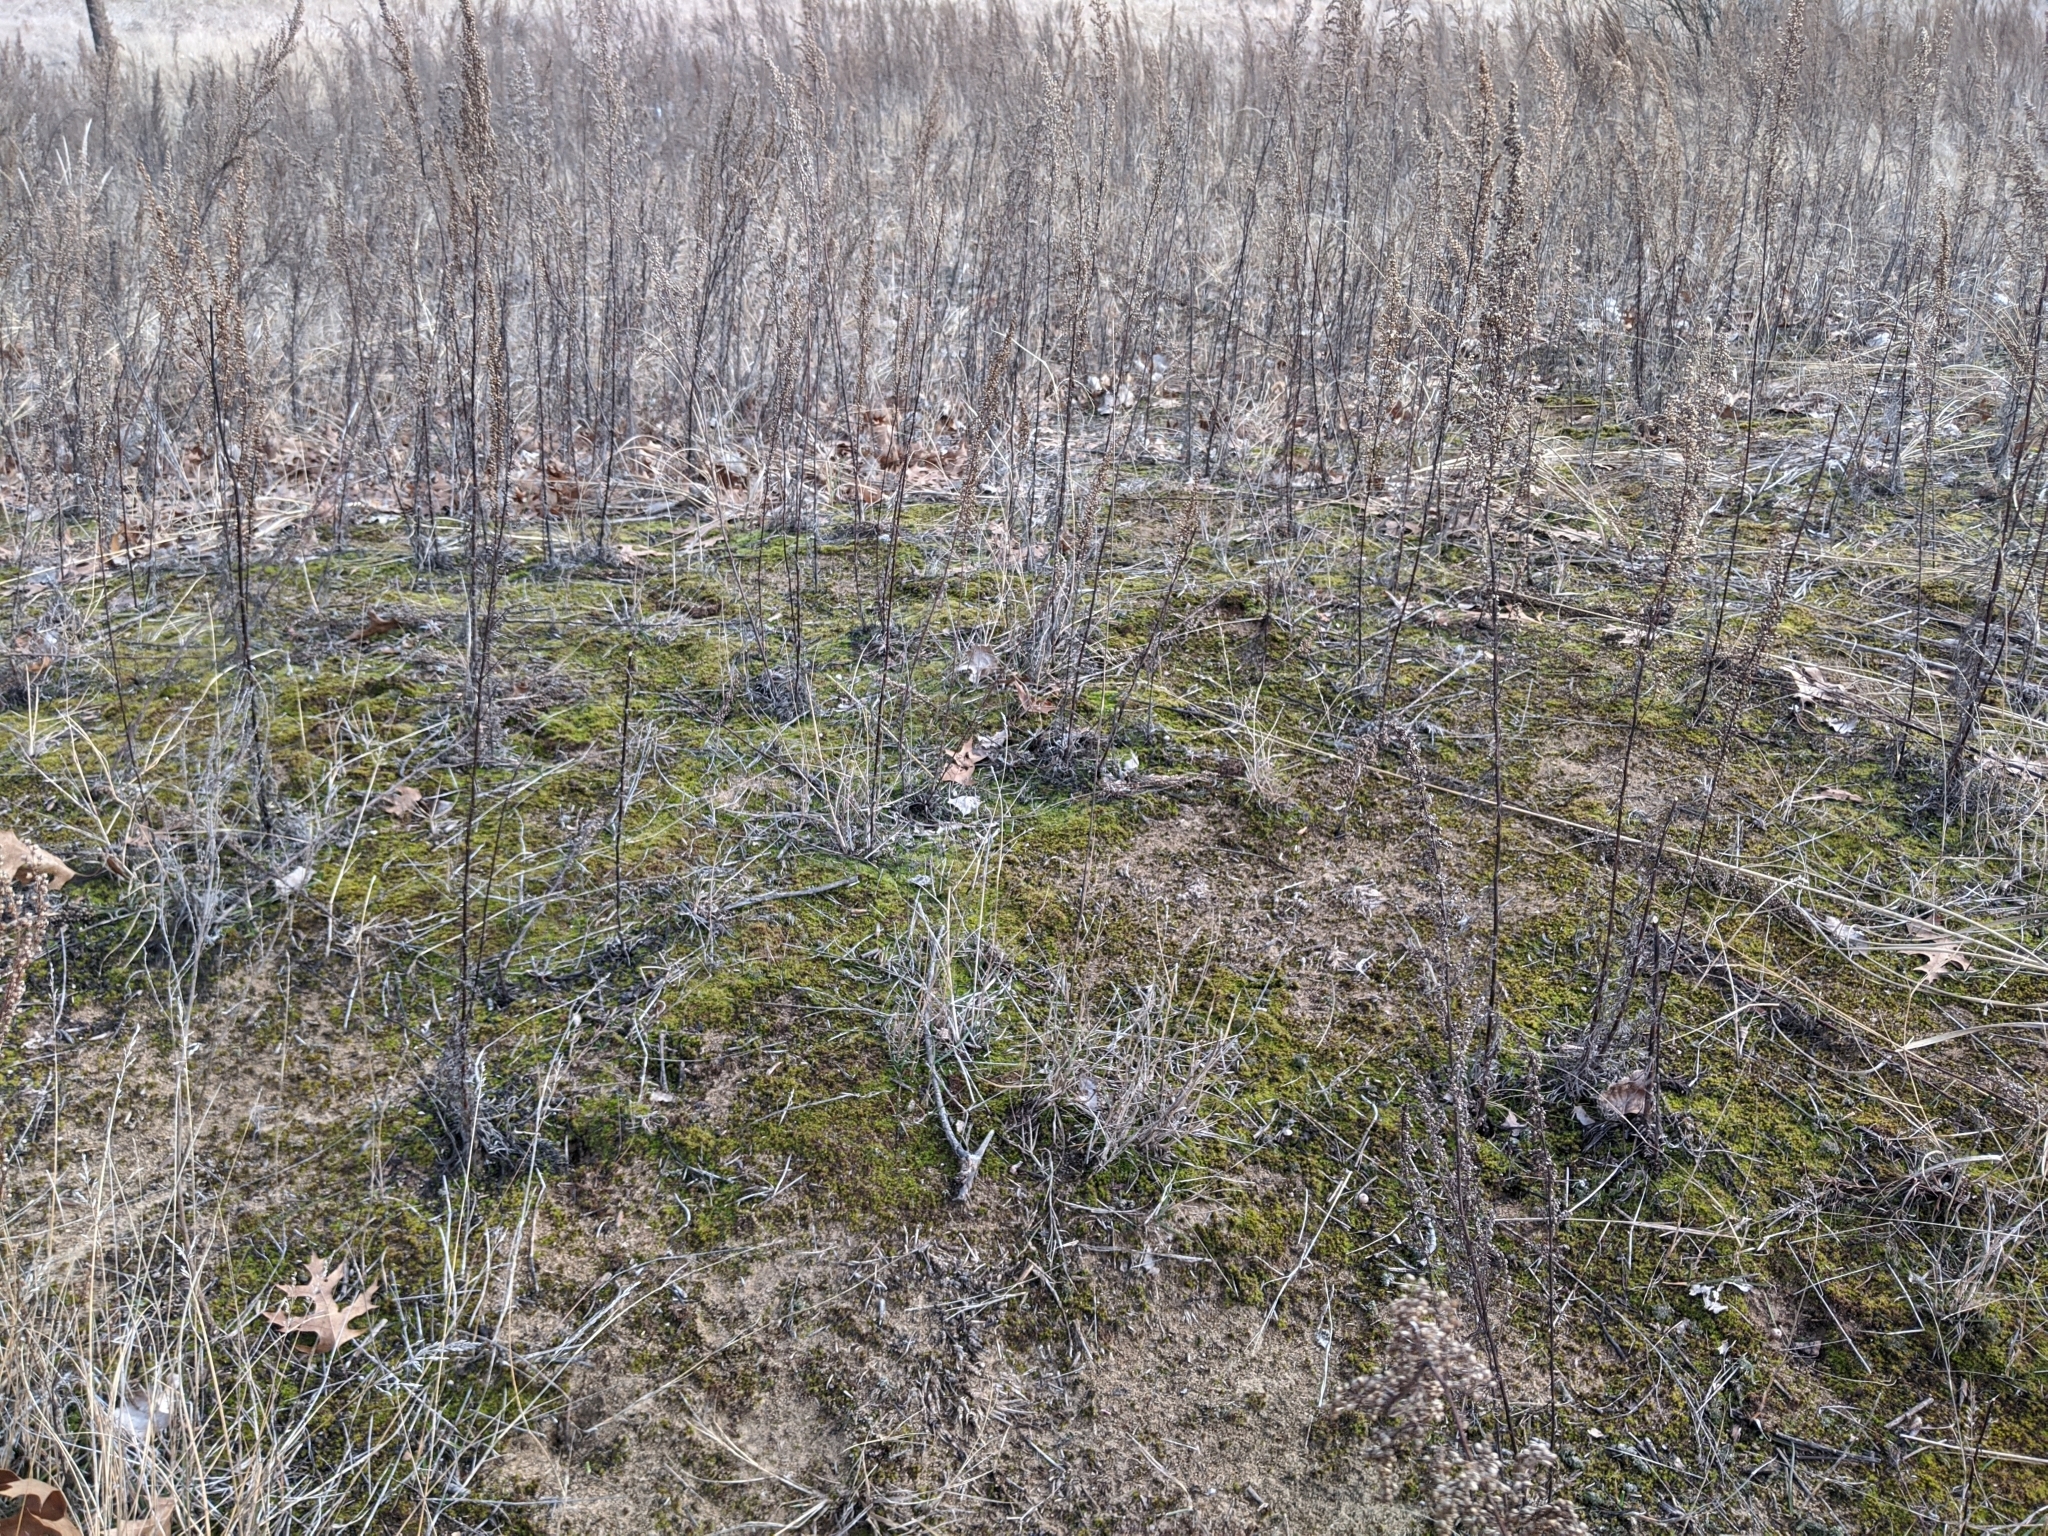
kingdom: Plantae
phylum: Bryophyta
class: Bryopsida
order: Pottiales
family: Pottiaceae
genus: Syntrichia
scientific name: Syntrichia ruralis
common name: Sidewalk screw moss
